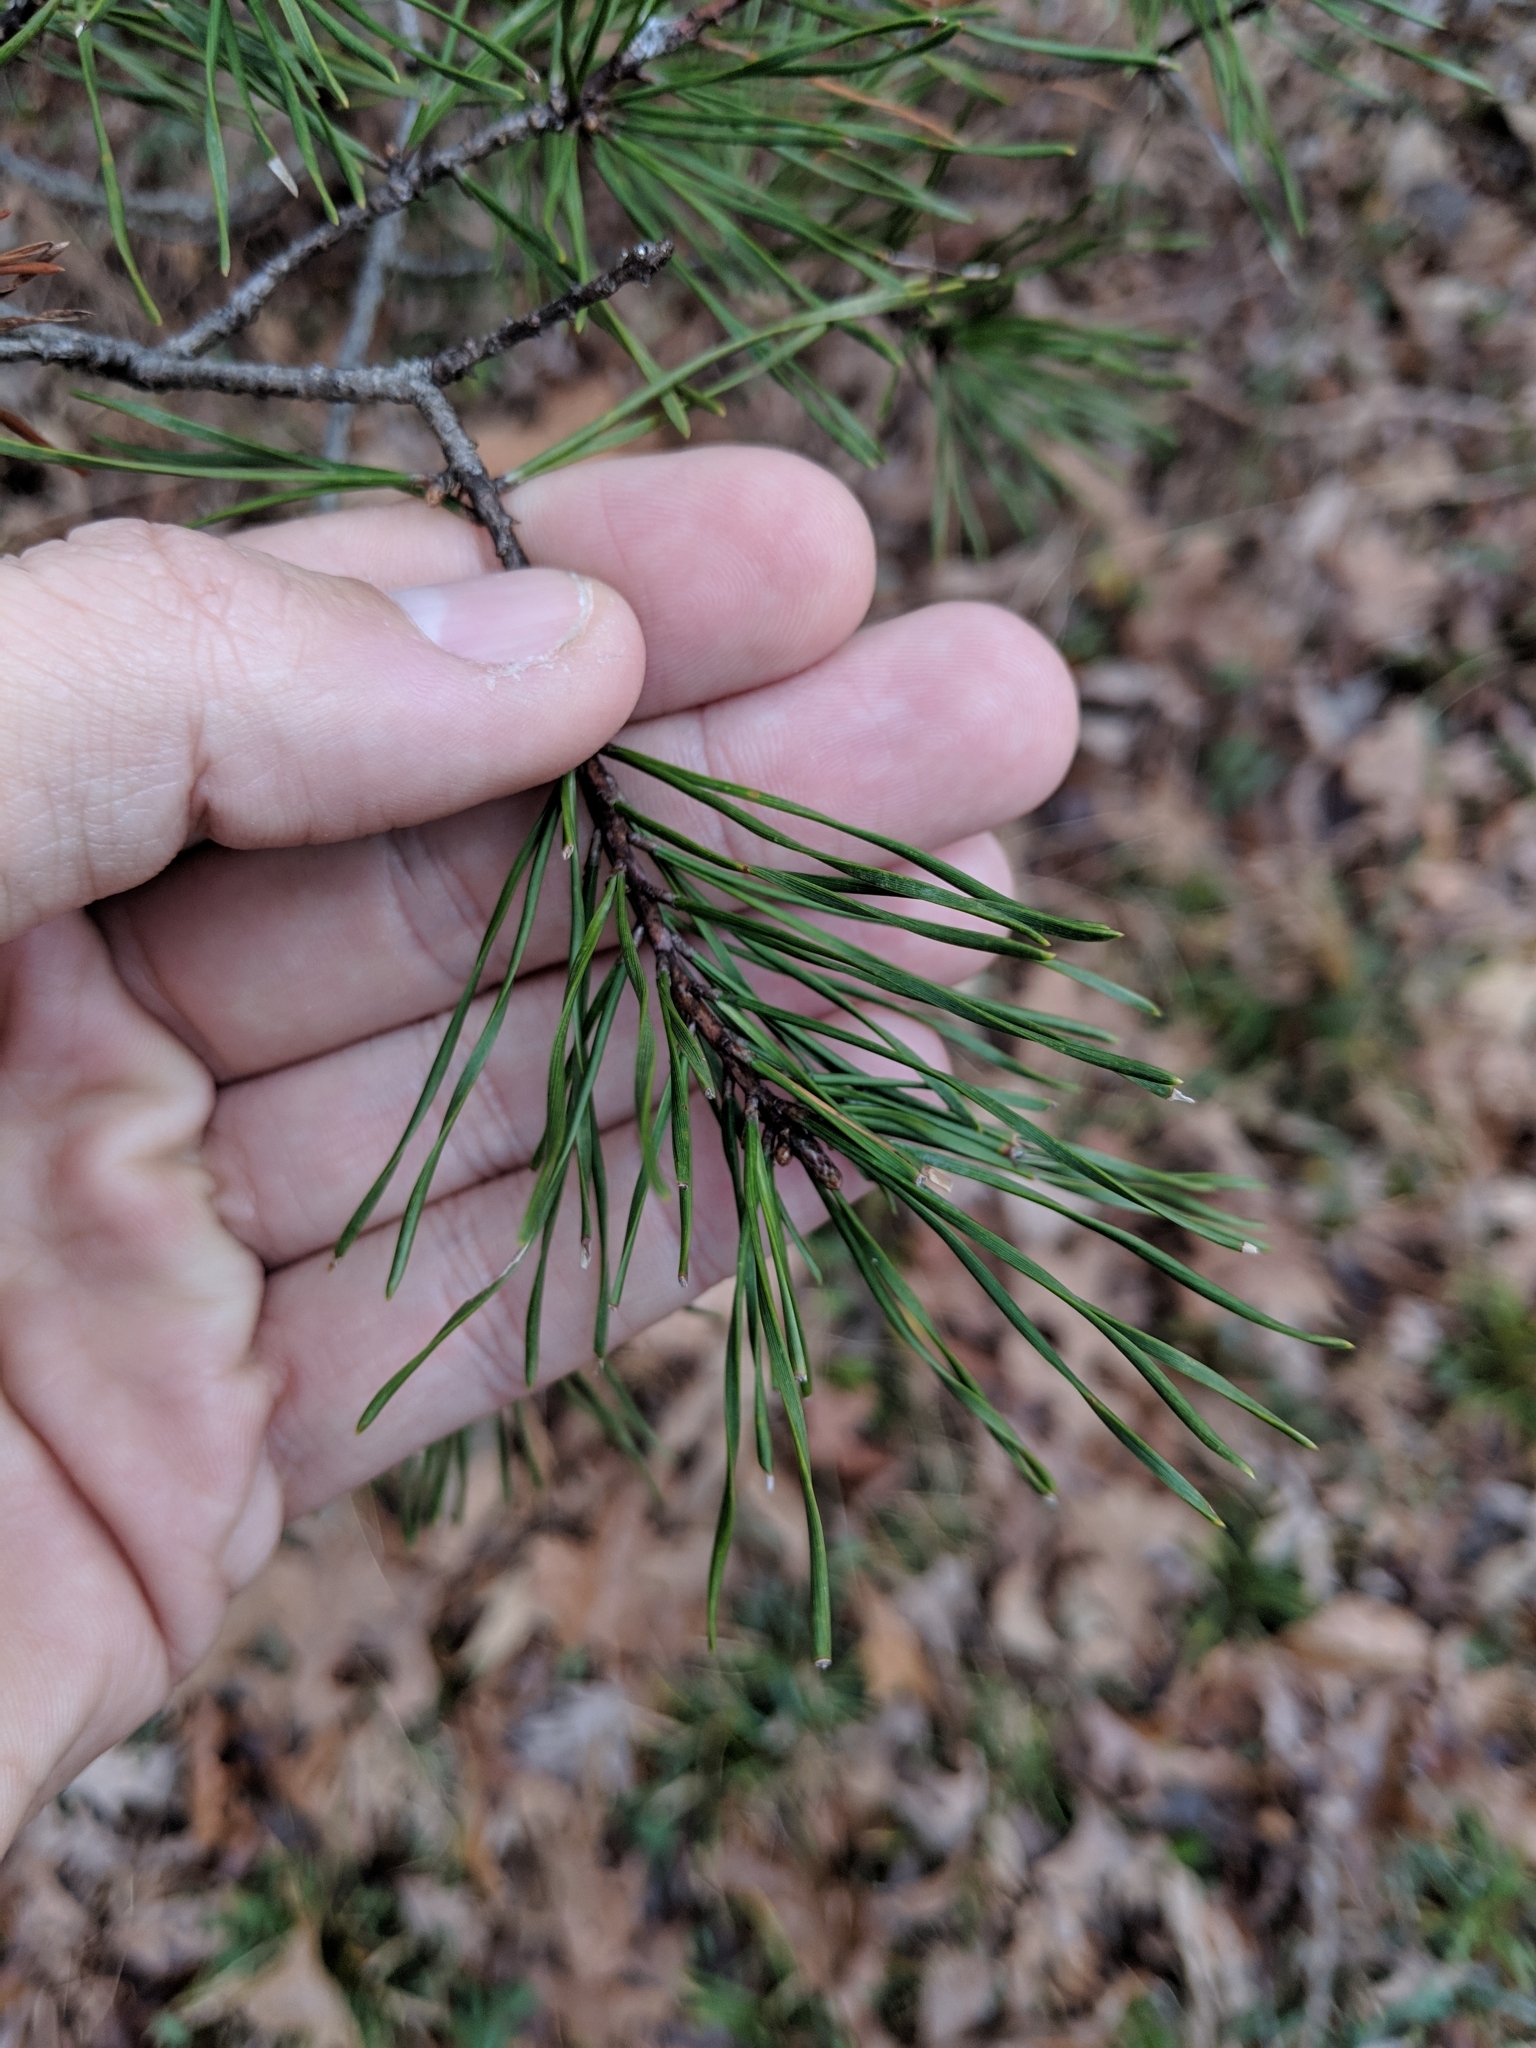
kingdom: Plantae
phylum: Tracheophyta
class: Pinopsida
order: Pinales
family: Pinaceae
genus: Pinus
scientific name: Pinus virginiana
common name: Scrub pine
